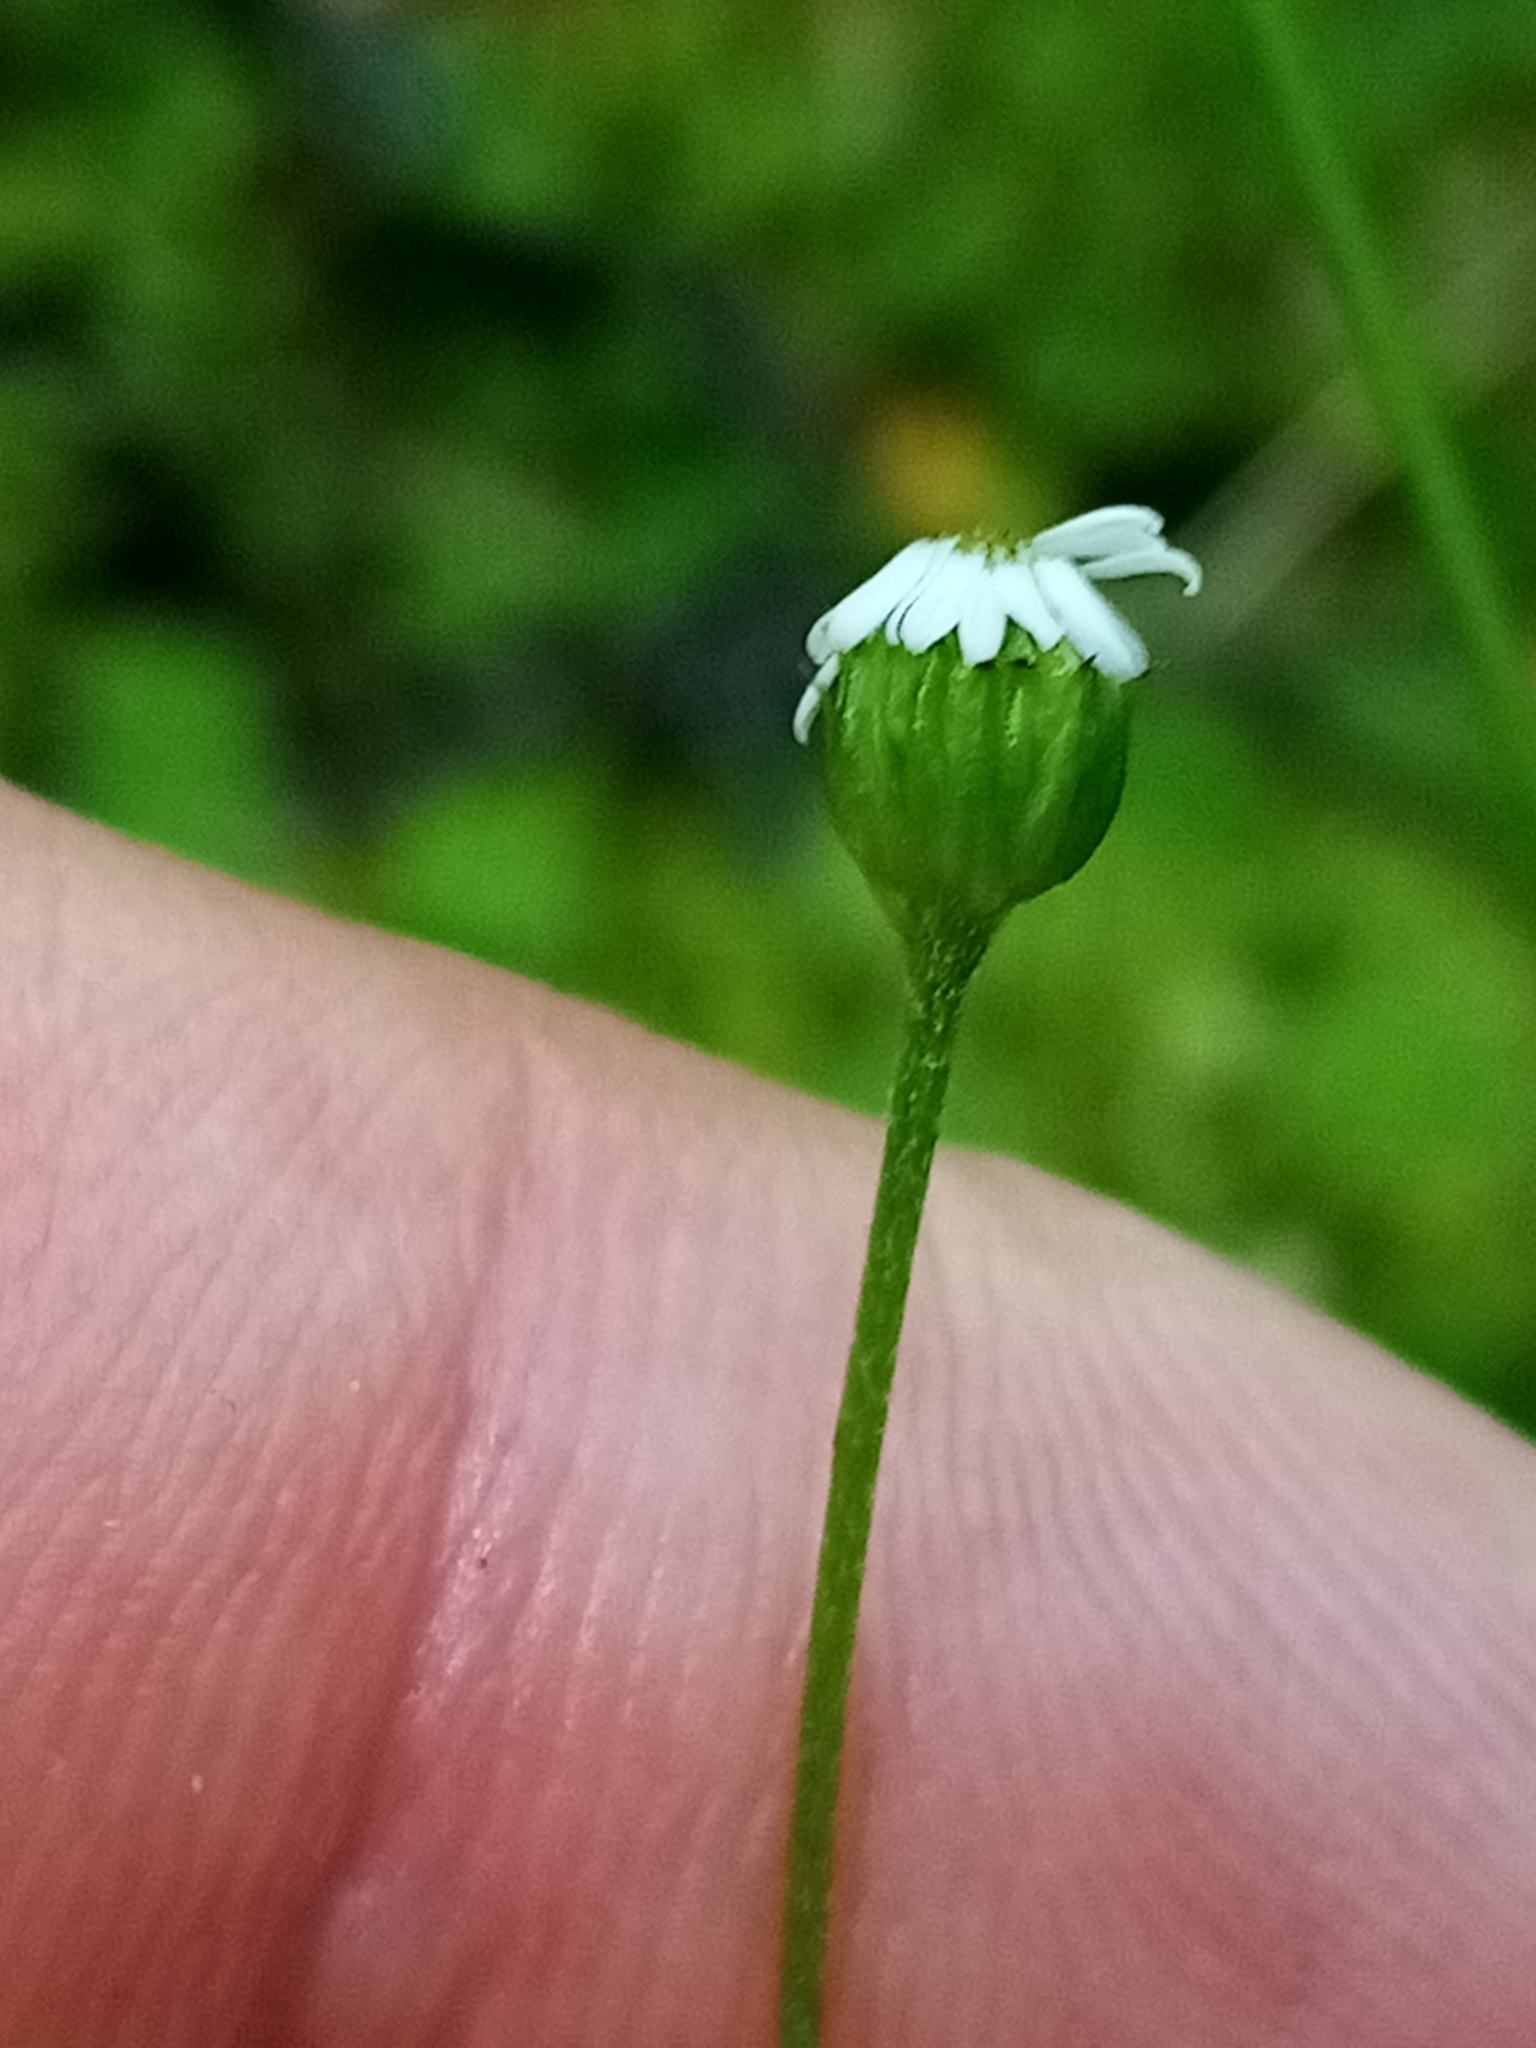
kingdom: Plantae
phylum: Tracheophyta
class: Magnoliopsida
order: Asterales
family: Asteraceae
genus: Lagenophora
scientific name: Lagenophora strangulata
